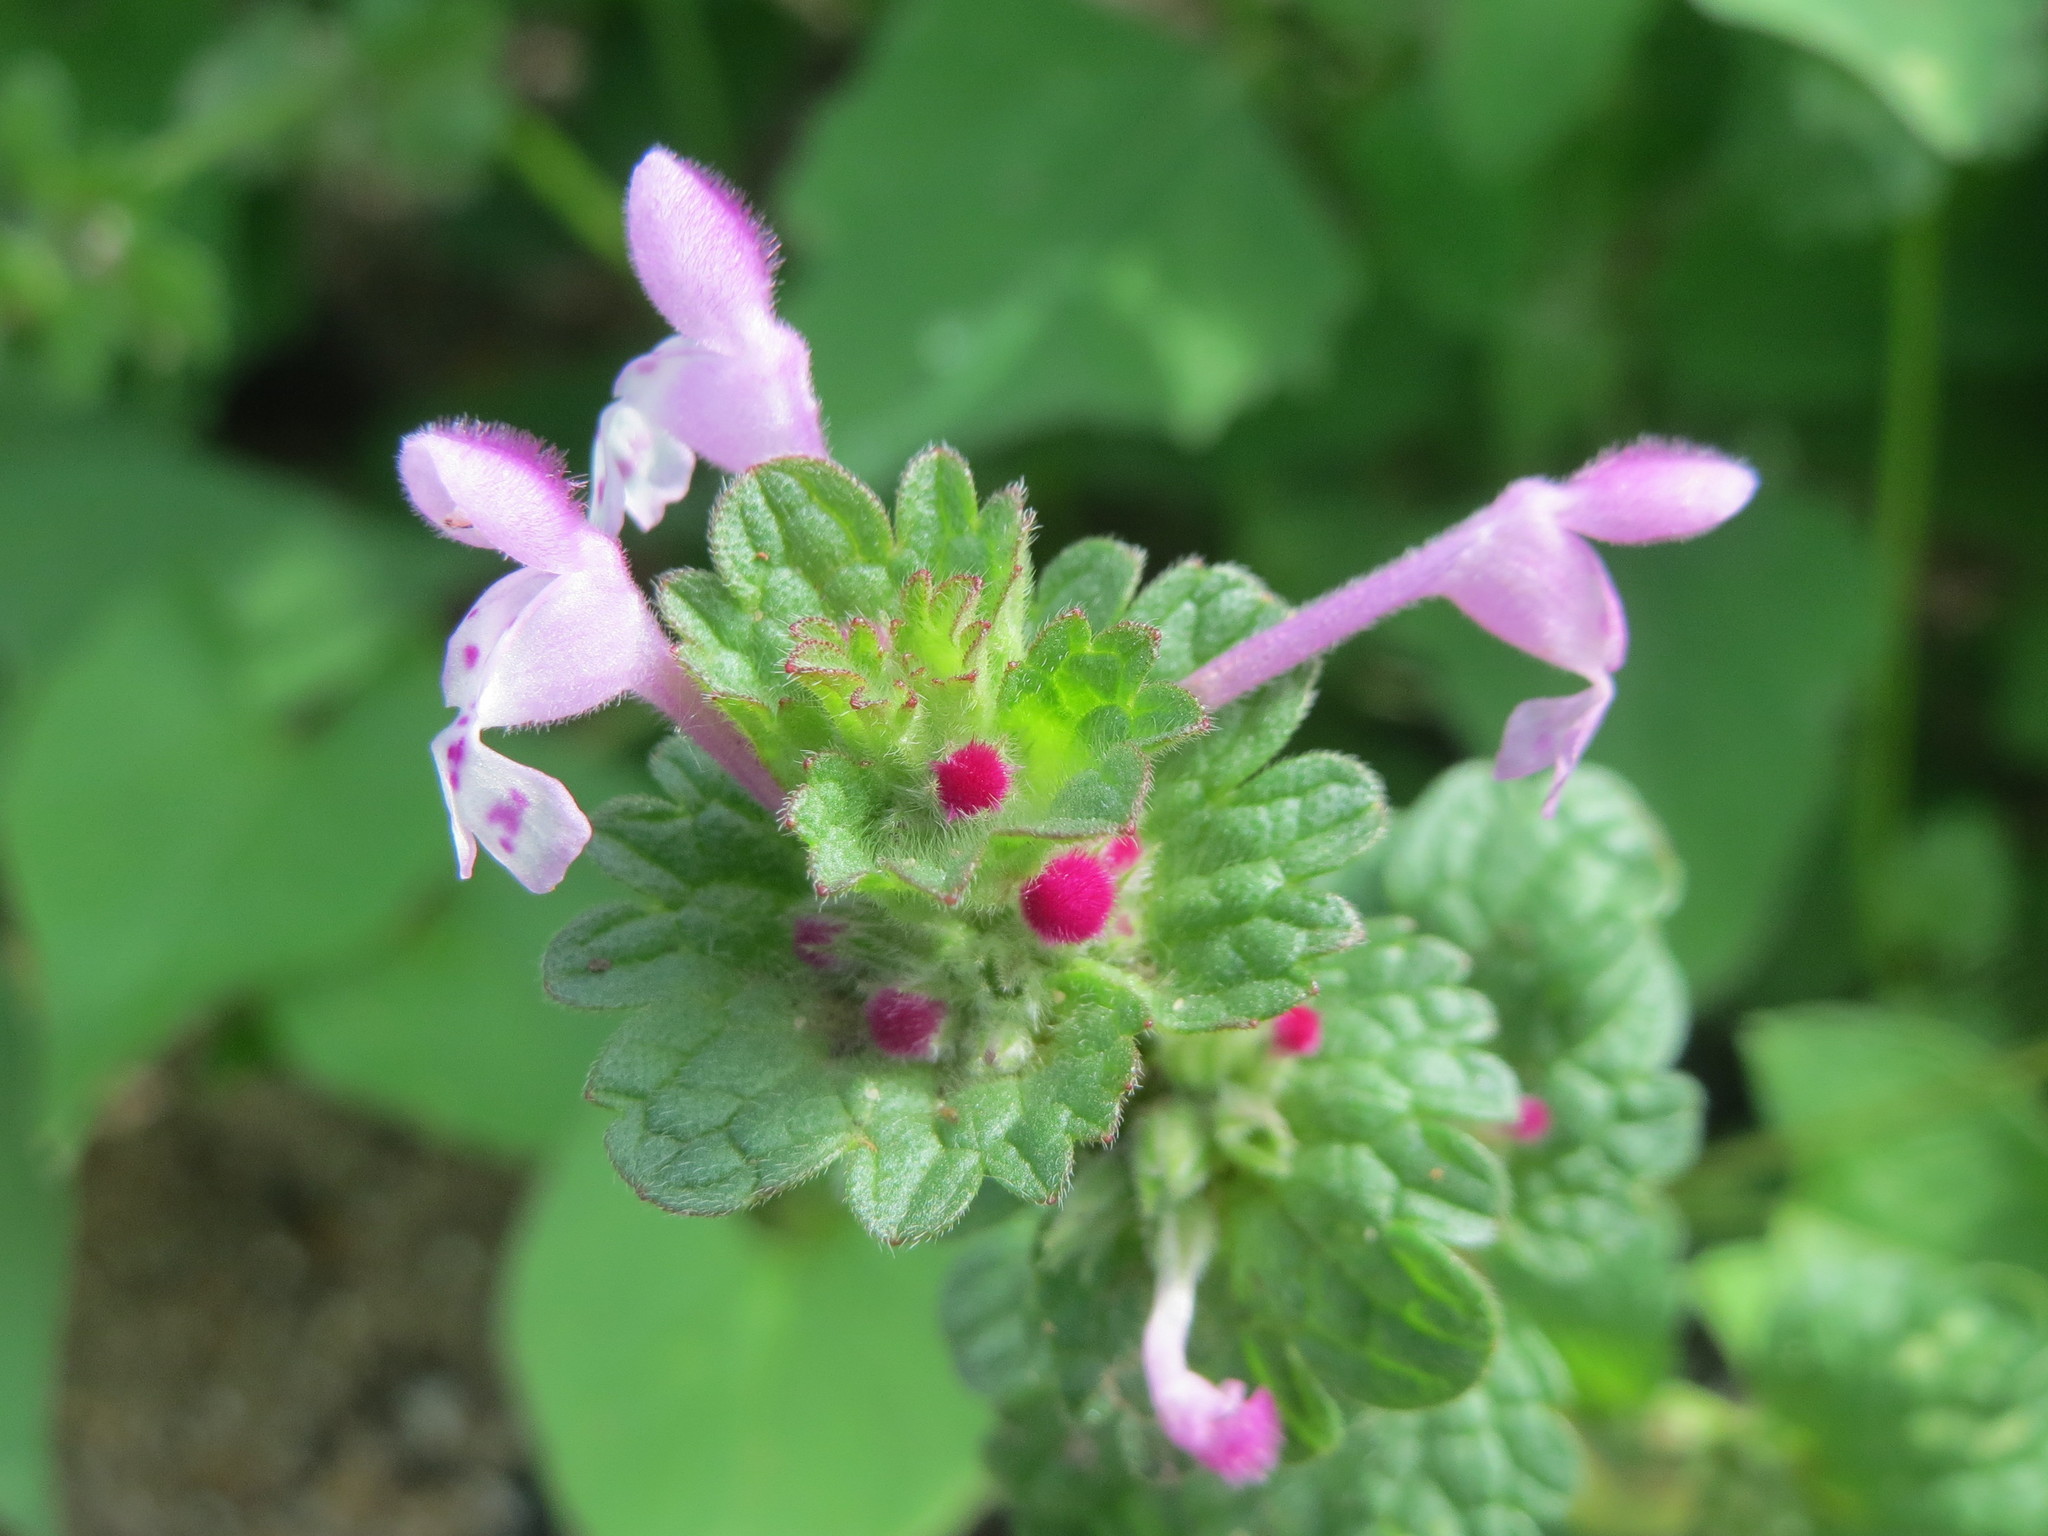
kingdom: Plantae
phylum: Tracheophyta
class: Magnoliopsida
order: Lamiales
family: Lamiaceae
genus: Lamium
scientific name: Lamium amplexicaule
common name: Henbit dead-nettle
